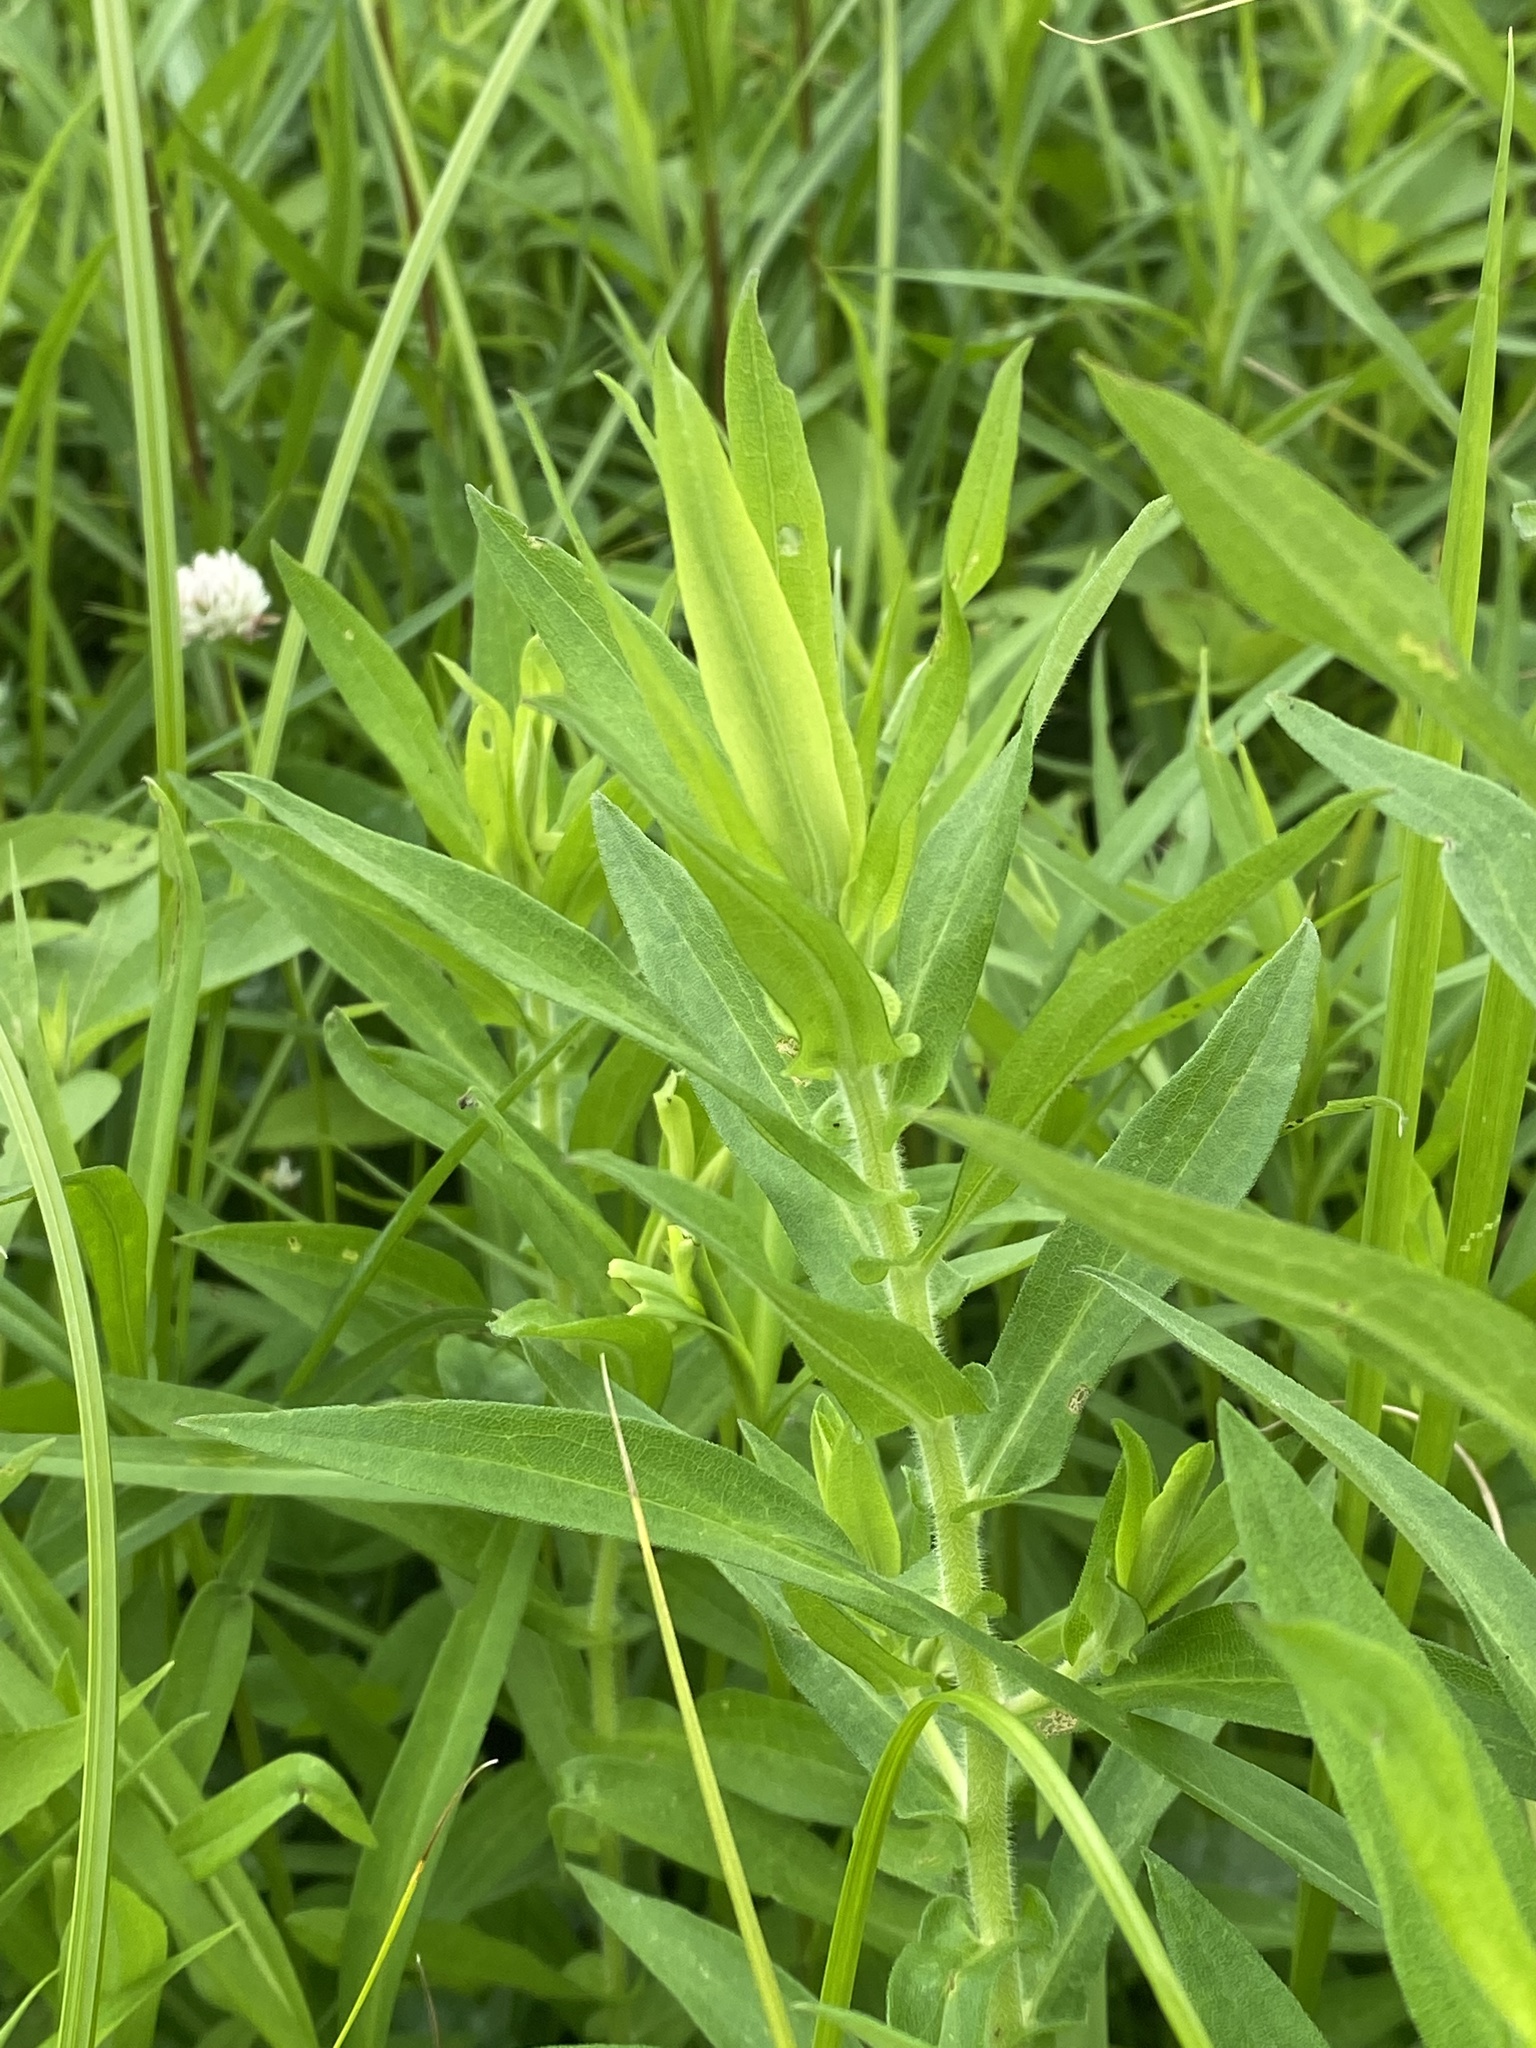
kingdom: Plantae
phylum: Tracheophyta
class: Magnoliopsida
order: Asterales
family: Asteraceae
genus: Symphyotrichum
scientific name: Symphyotrichum novae-angliae
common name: Michaelmas daisy
